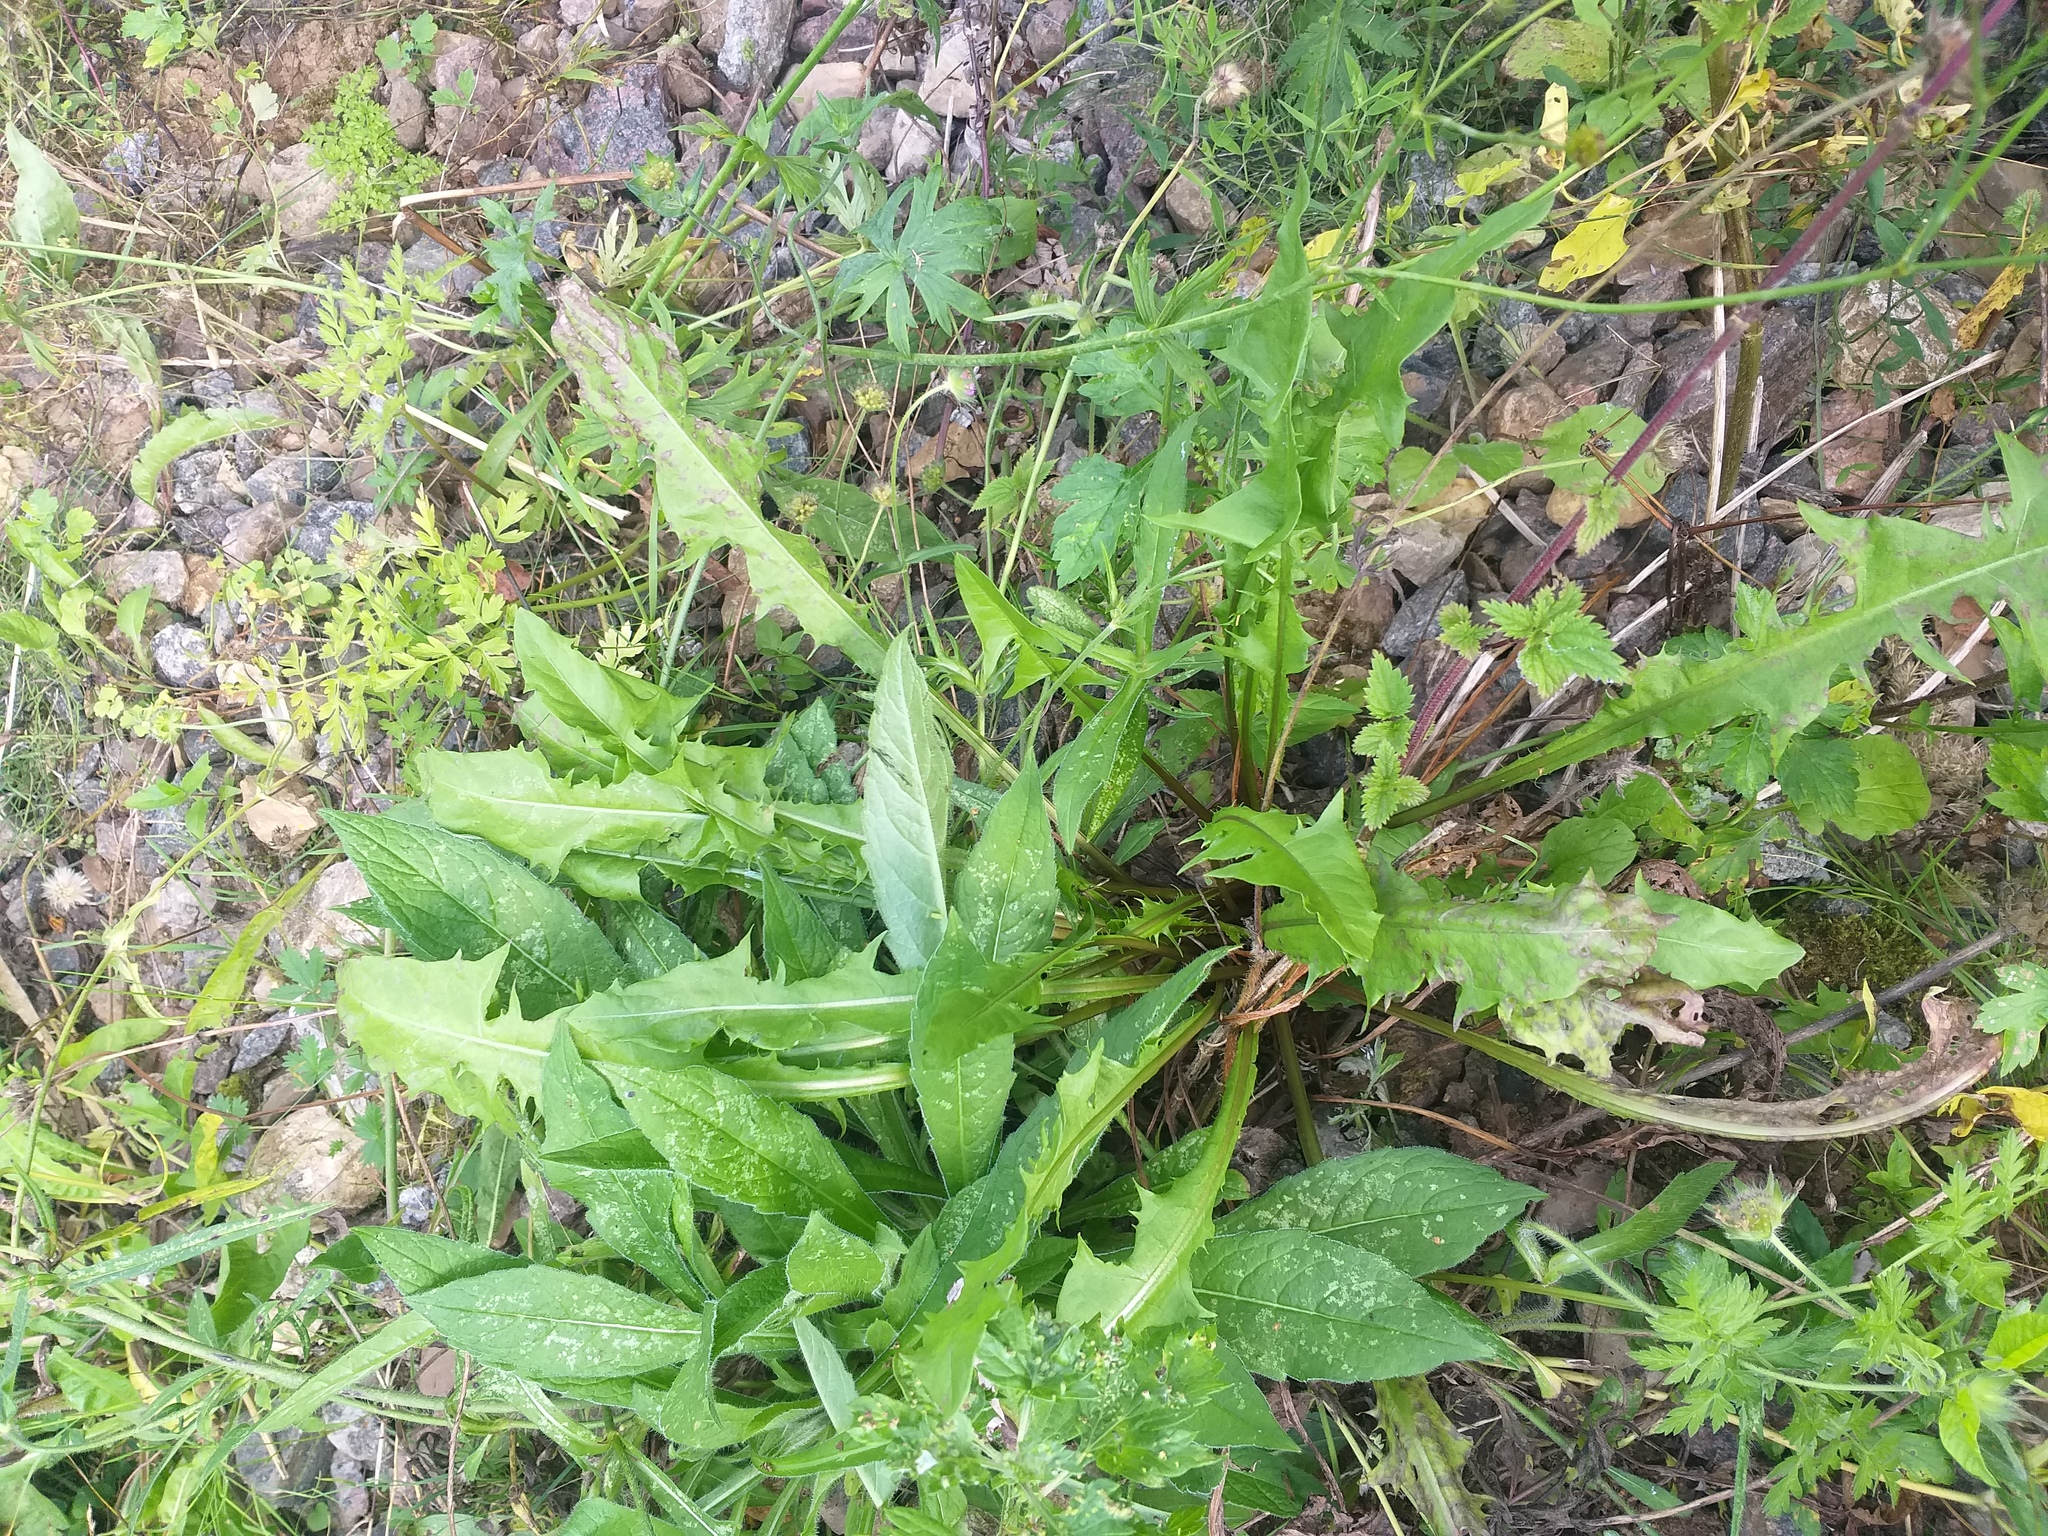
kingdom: Plantae
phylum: Tracheophyta
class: Magnoliopsida
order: Asterales
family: Asteraceae
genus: Taraxacum
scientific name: Taraxacum officinale
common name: Common dandelion
